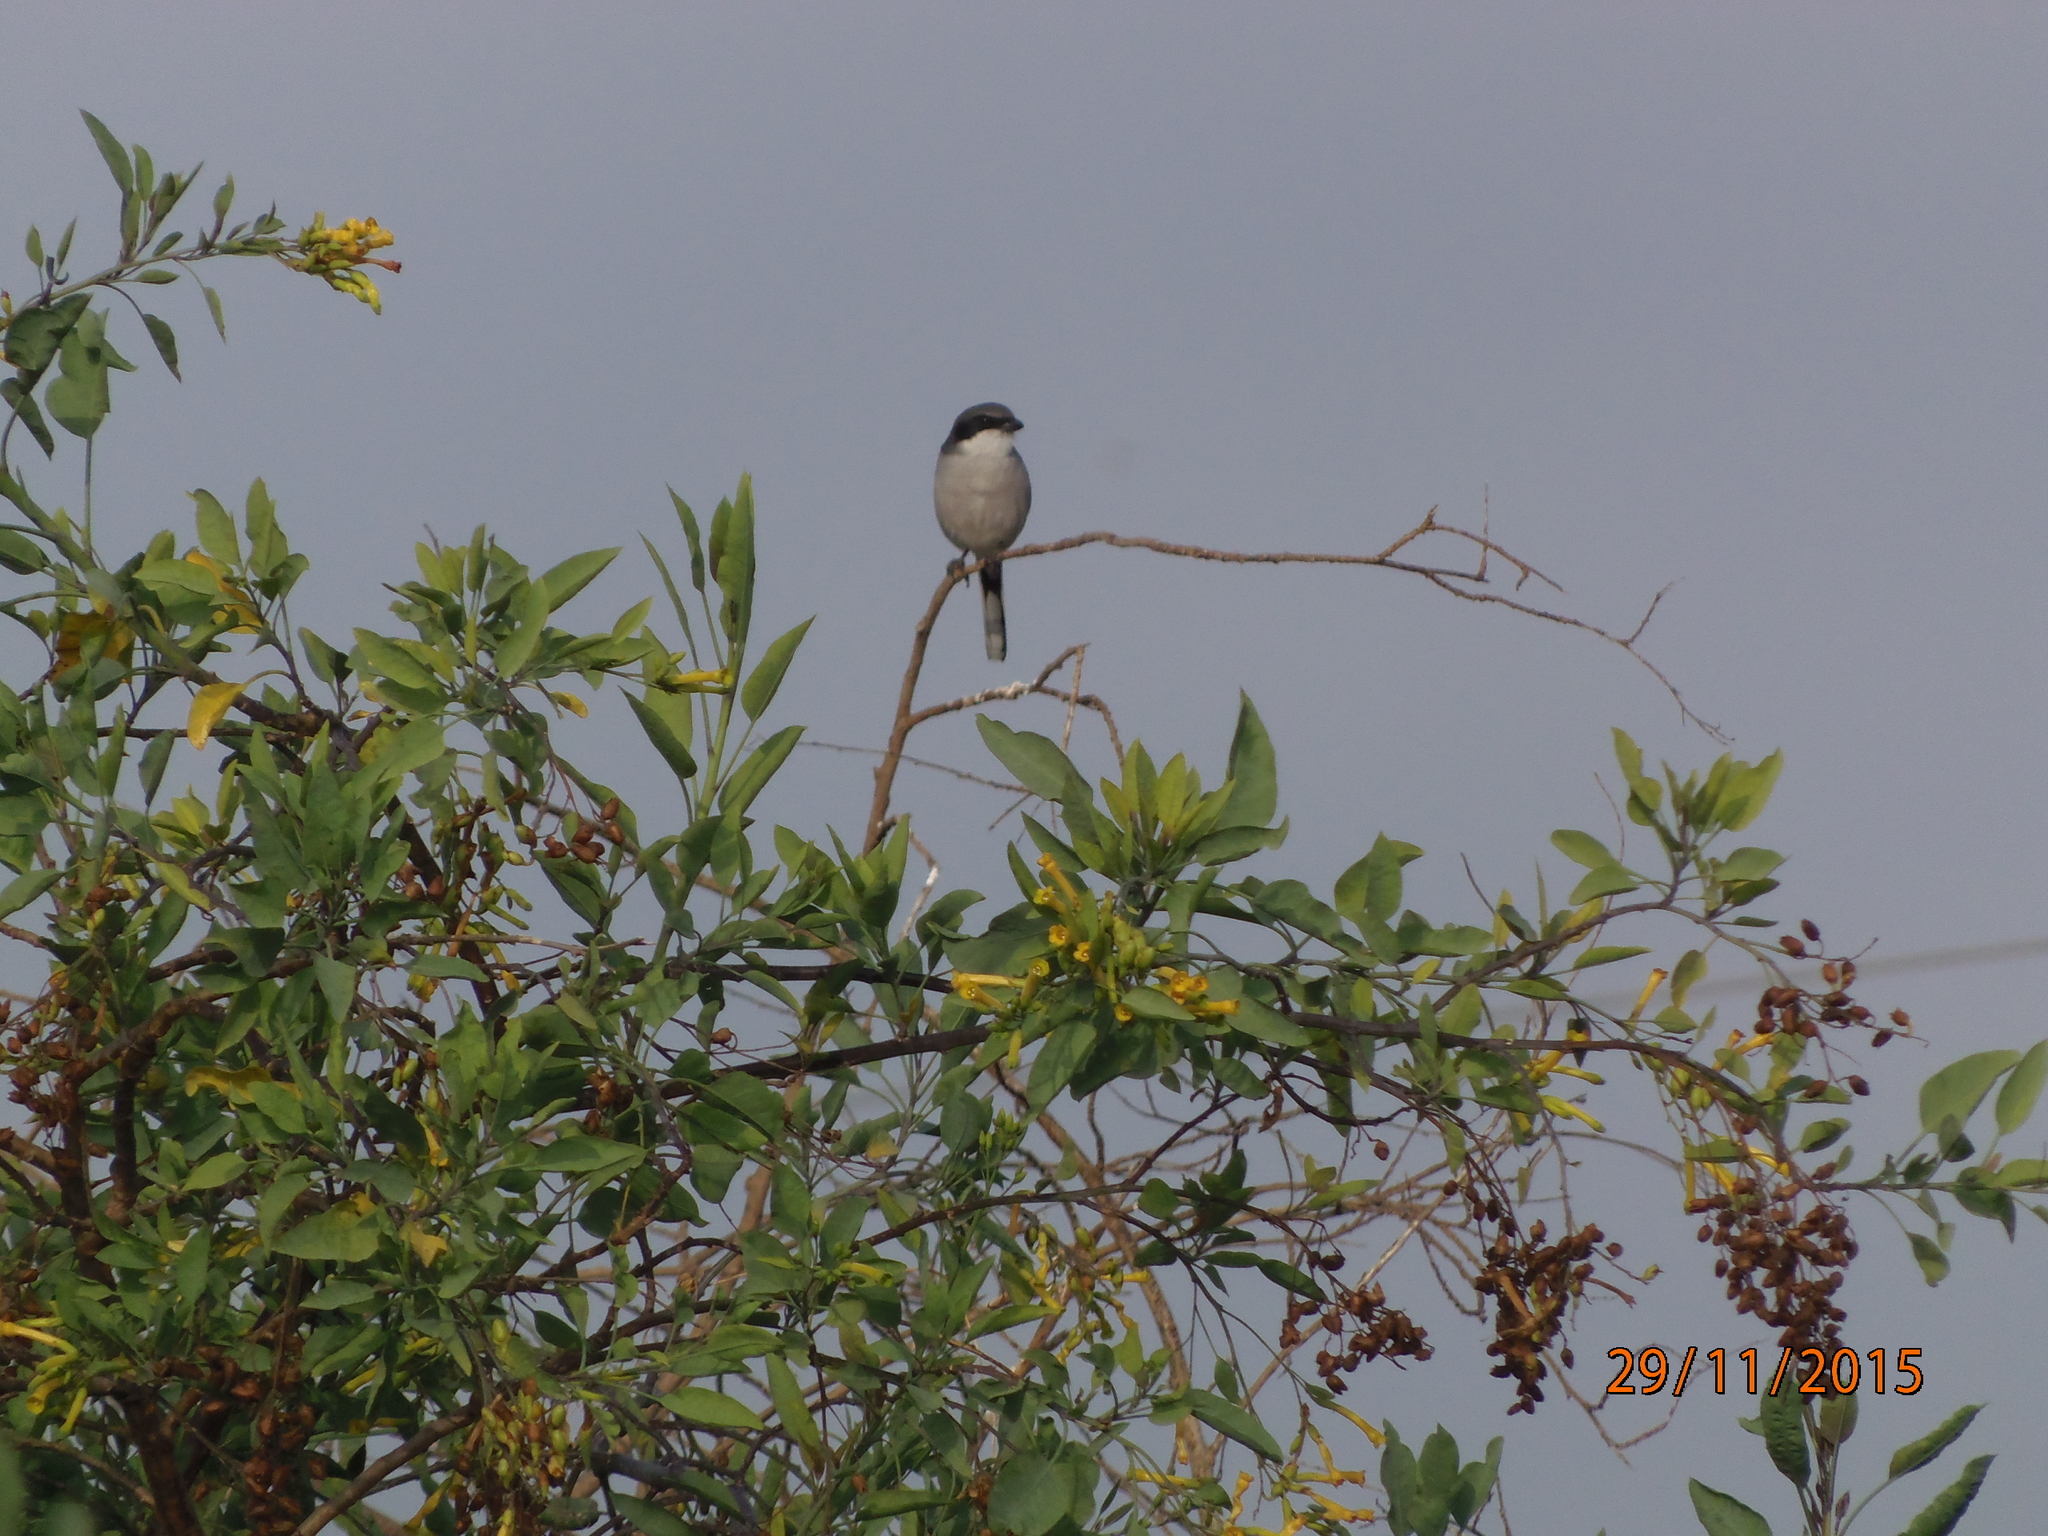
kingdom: Animalia
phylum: Chordata
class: Aves
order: Passeriformes
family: Laniidae
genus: Lanius
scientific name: Lanius ludovicianus
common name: Loggerhead shrike
